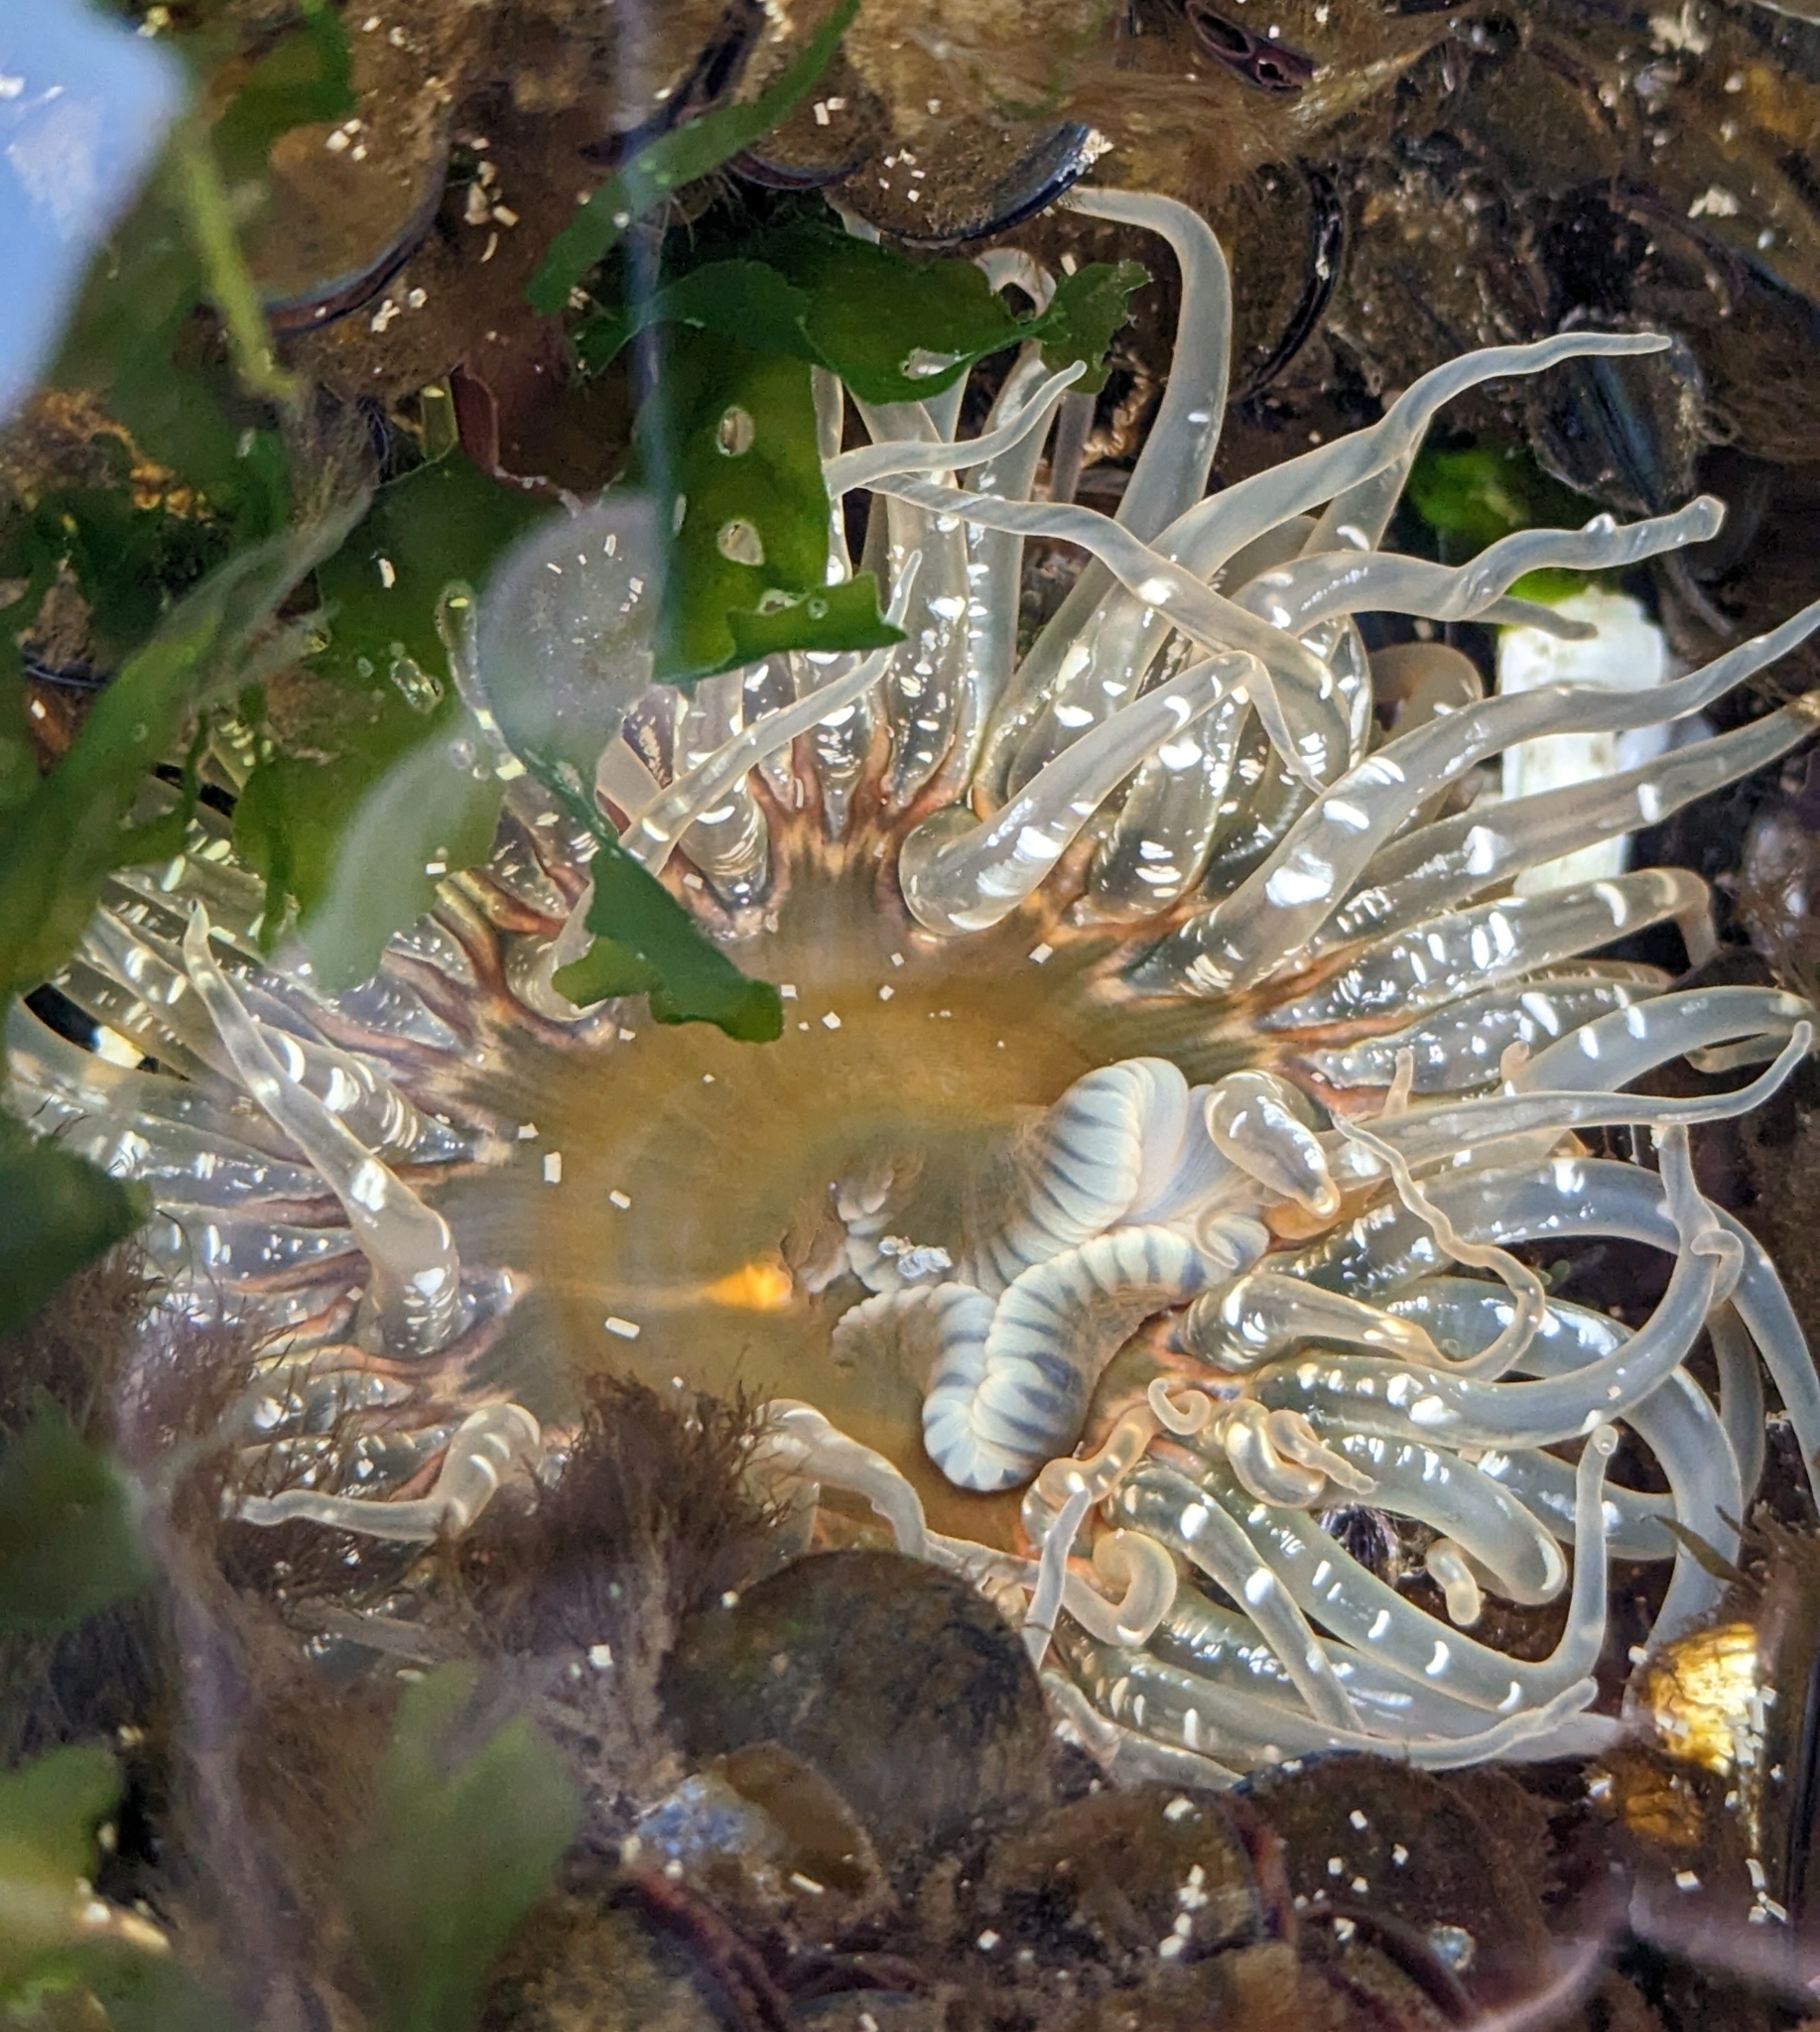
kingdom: Animalia
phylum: Cnidaria
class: Anthozoa
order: Actiniaria
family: Actiniidae
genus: Anthopleura
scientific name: Anthopleura artemisia
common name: Buried sea anemone
